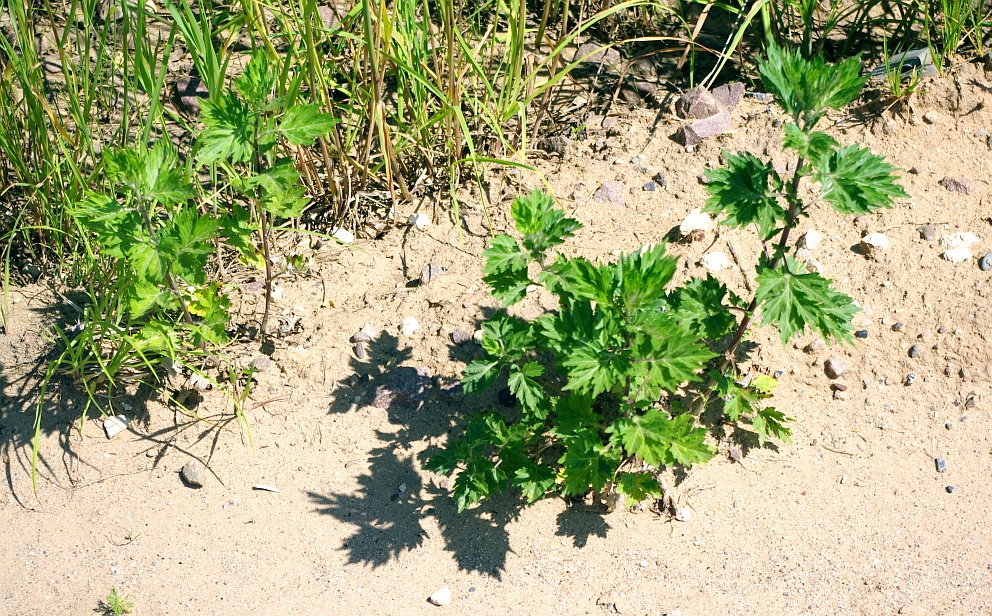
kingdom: Plantae
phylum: Tracheophyta
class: Magnoliopsida
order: Asterales
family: Asteraceae
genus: Artemisia
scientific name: Artemisia vulgaris
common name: Mugwort
